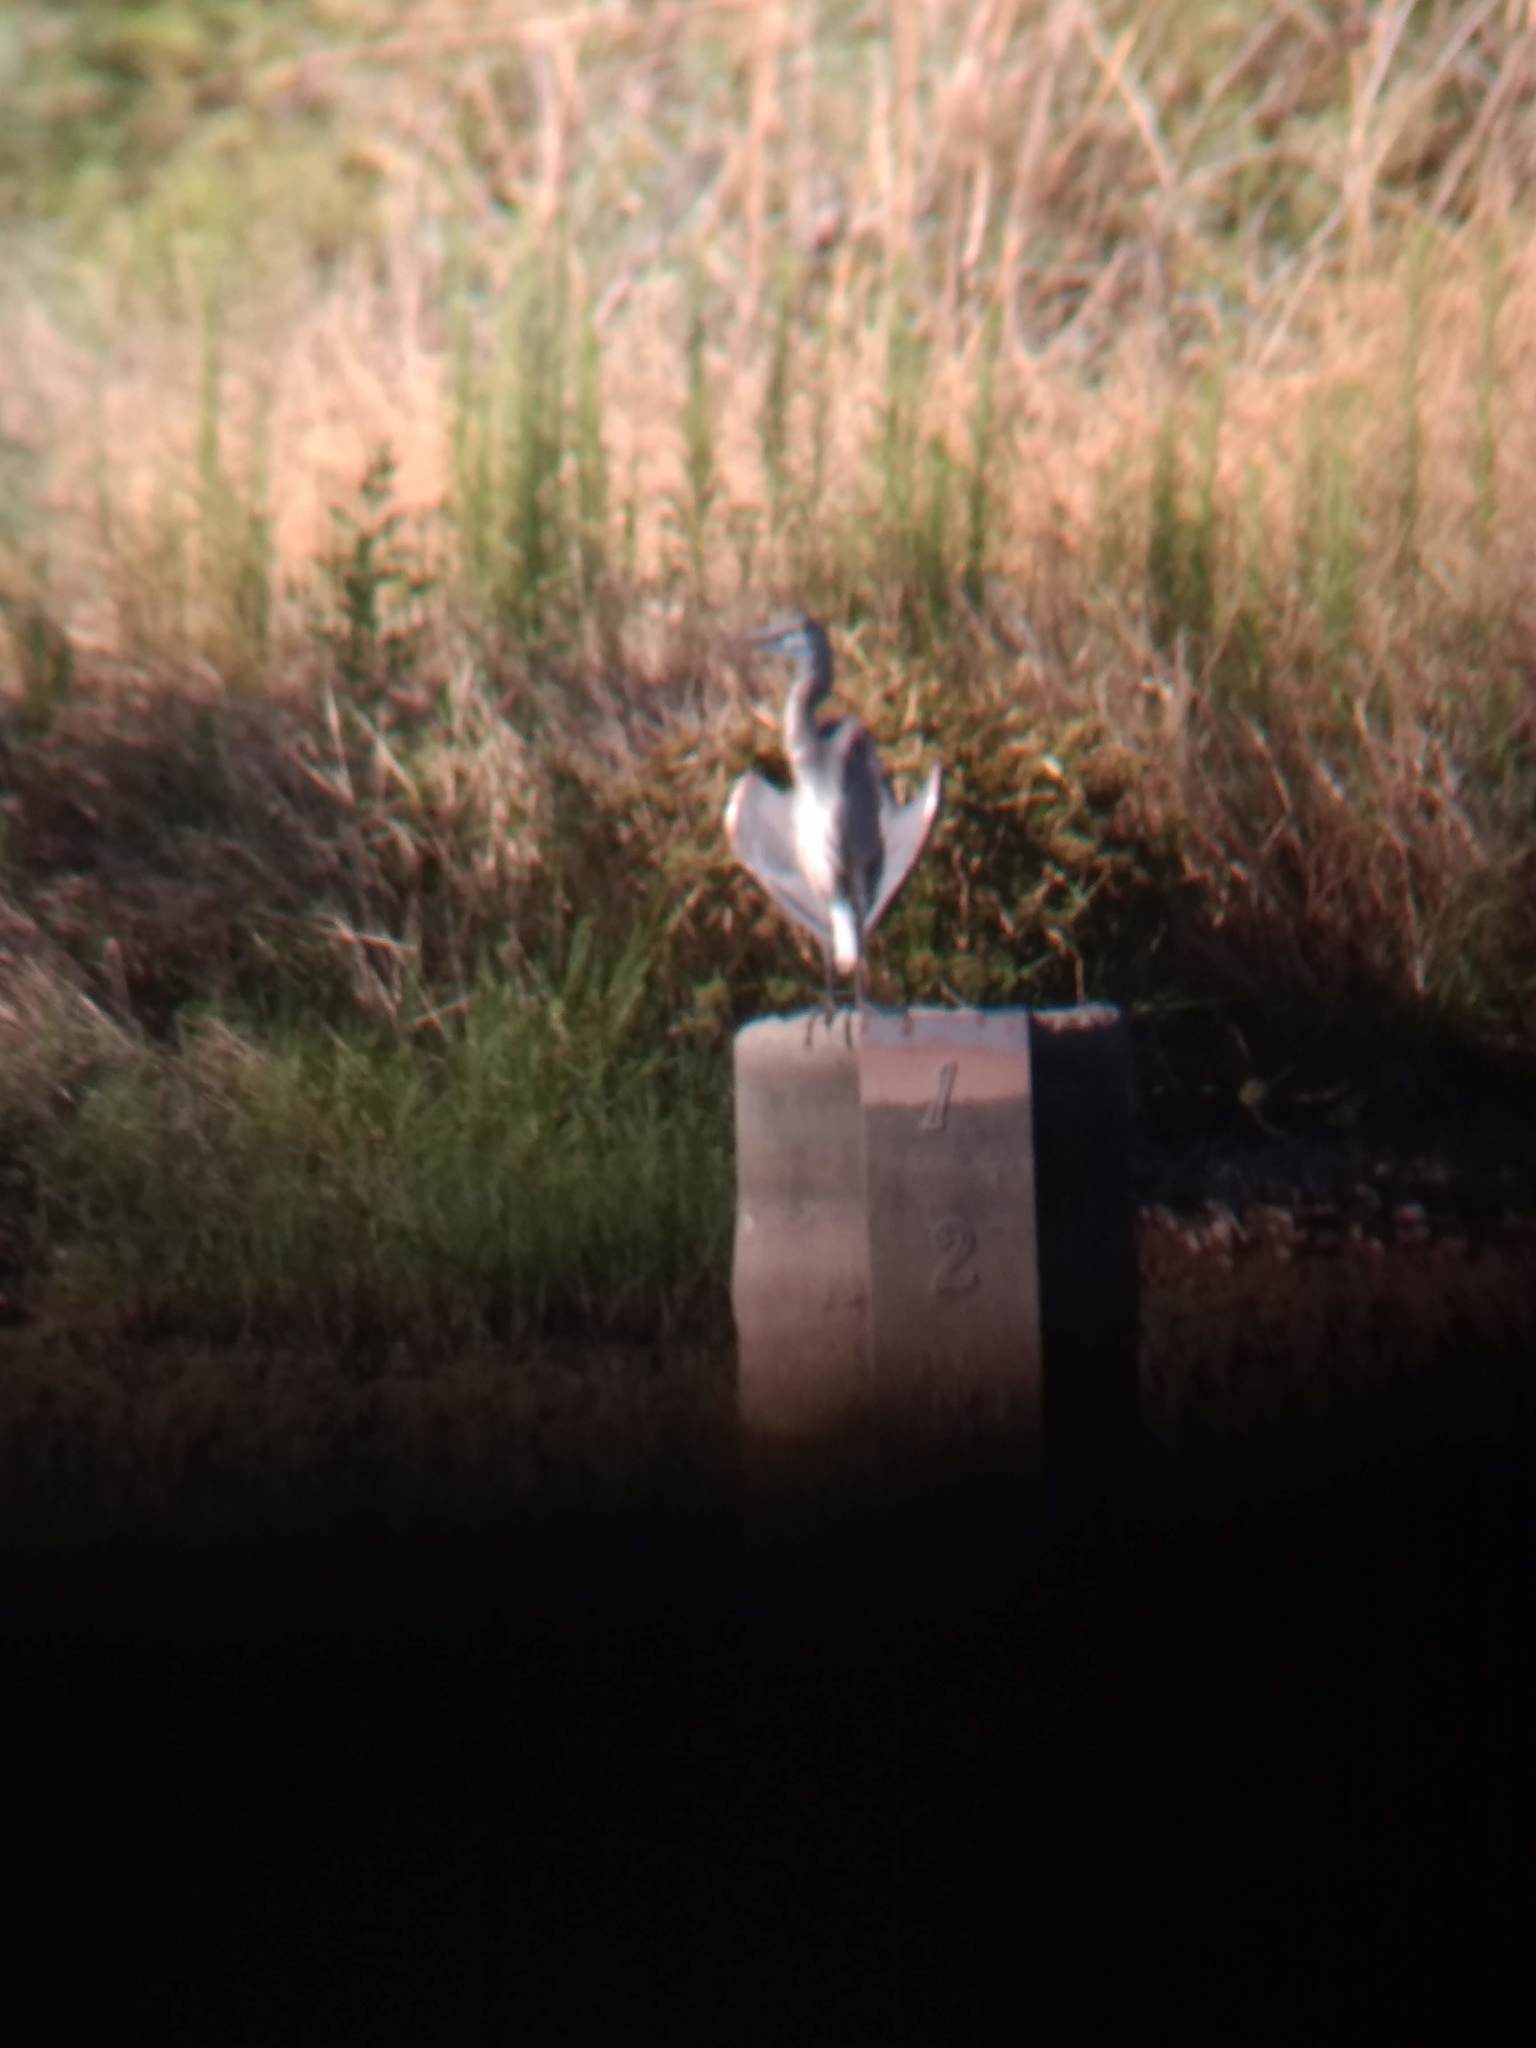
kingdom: Animalia
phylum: Chordata
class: Aves
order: Pelecaniformes
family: Ardeidae
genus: Ardea
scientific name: Ardea herodias
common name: Great blue heron
